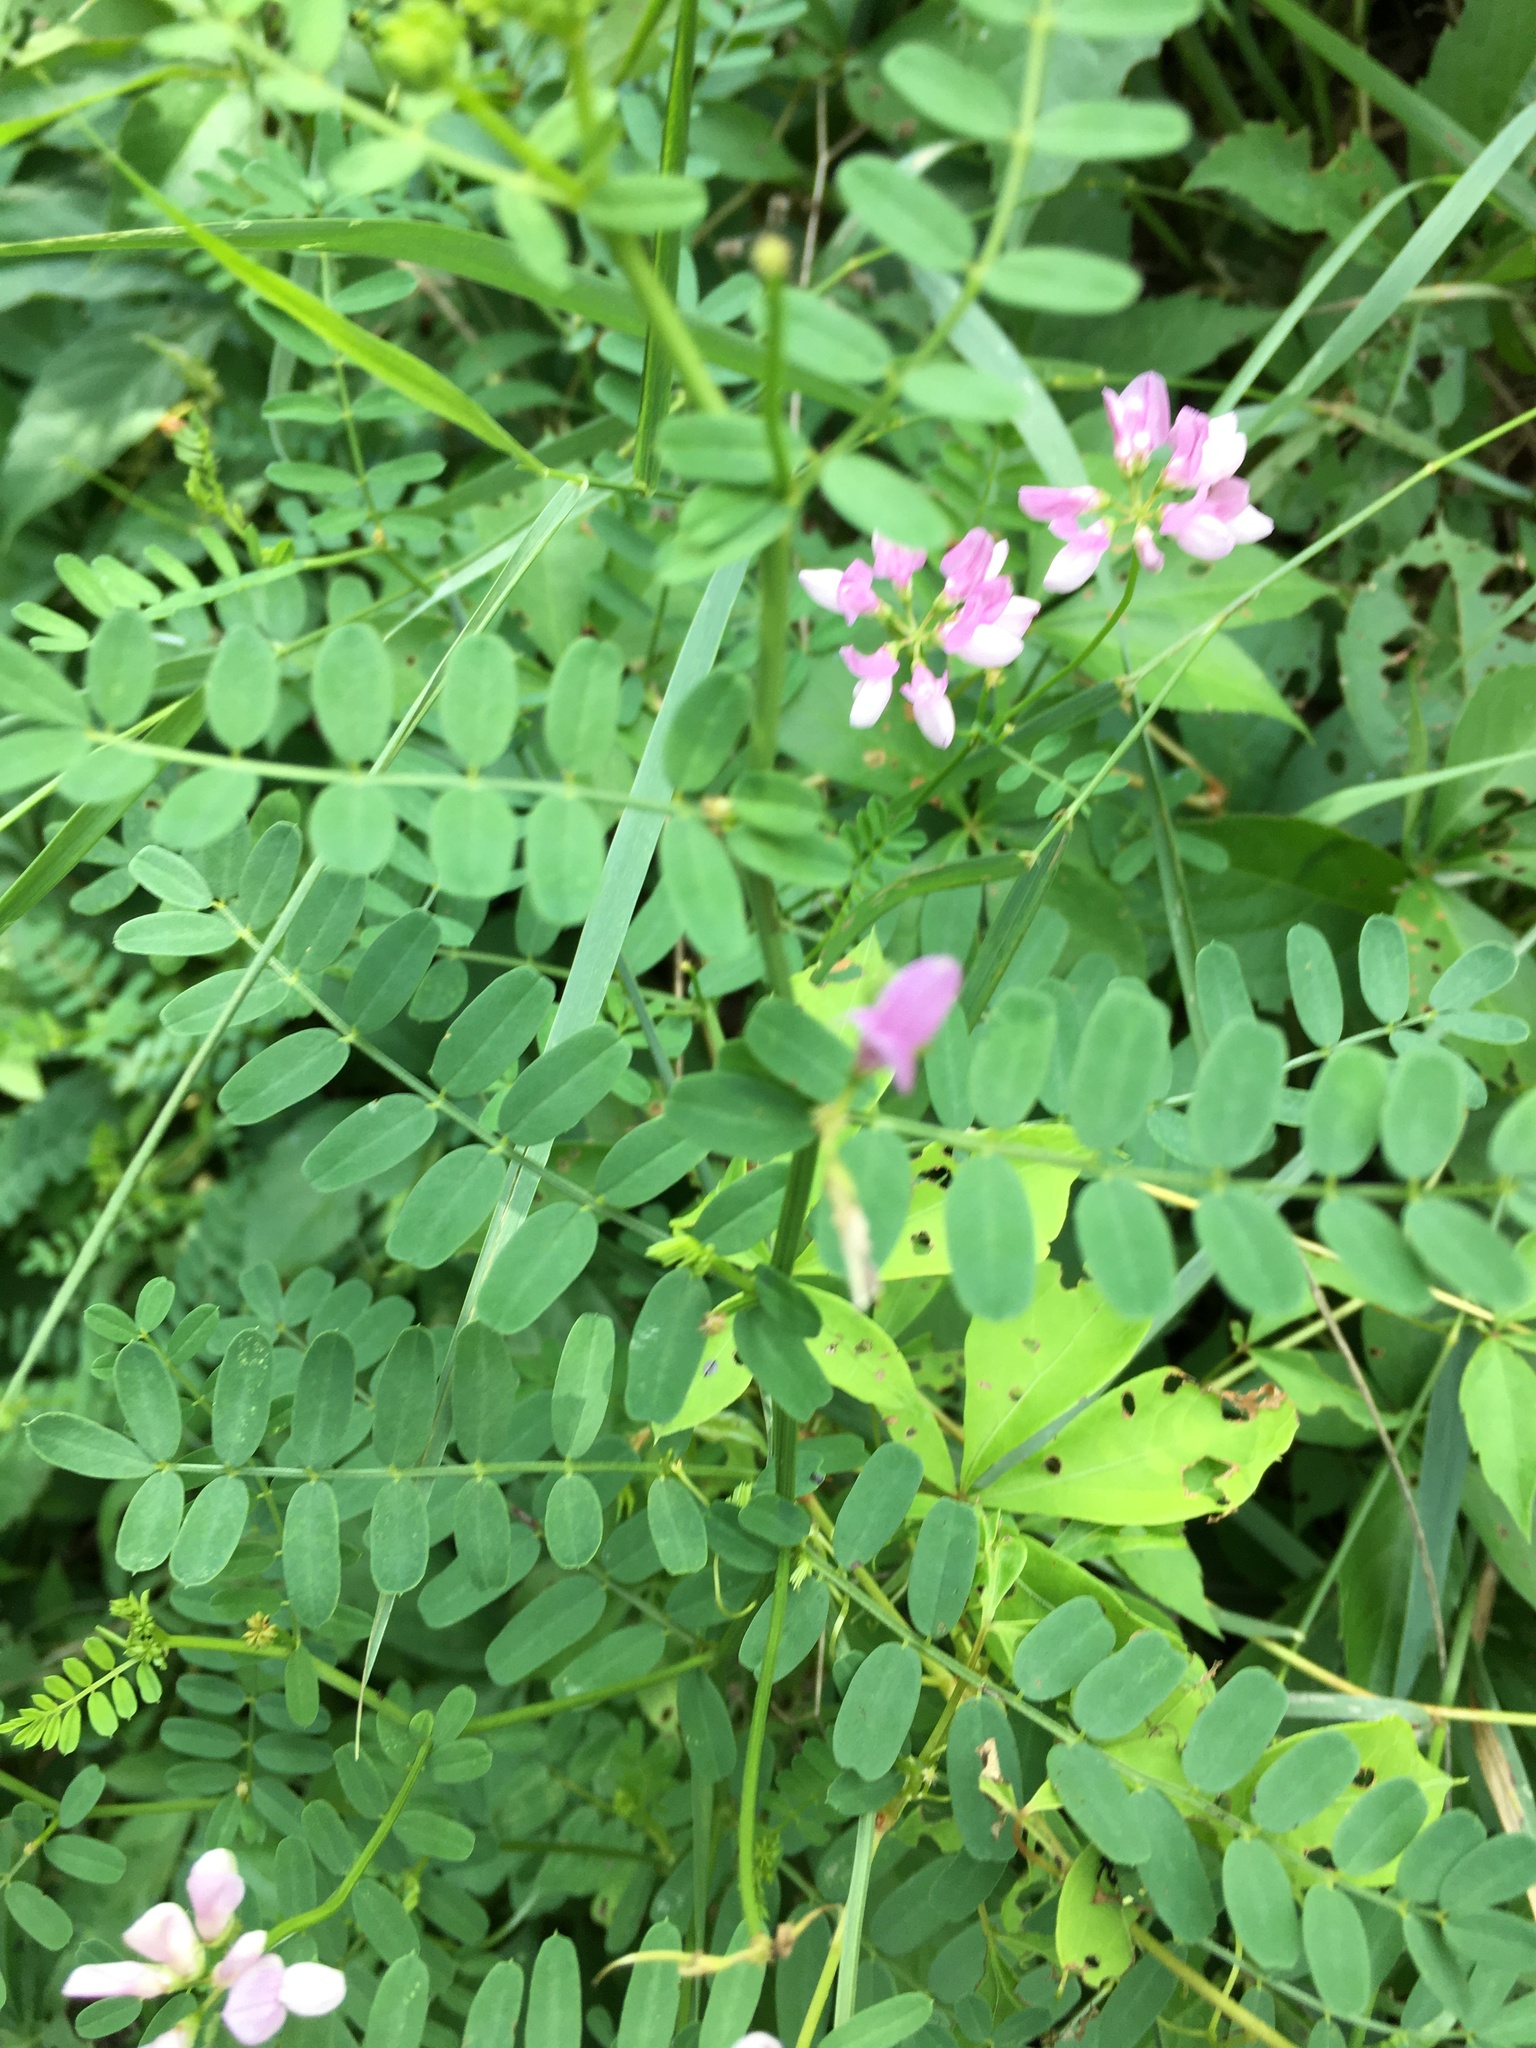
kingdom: Plantae
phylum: Tracheophyta
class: Magnoliopsida
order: Fabales
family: Fabaceae
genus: Coronilla
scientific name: Coronilla varia
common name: Crownvetch
